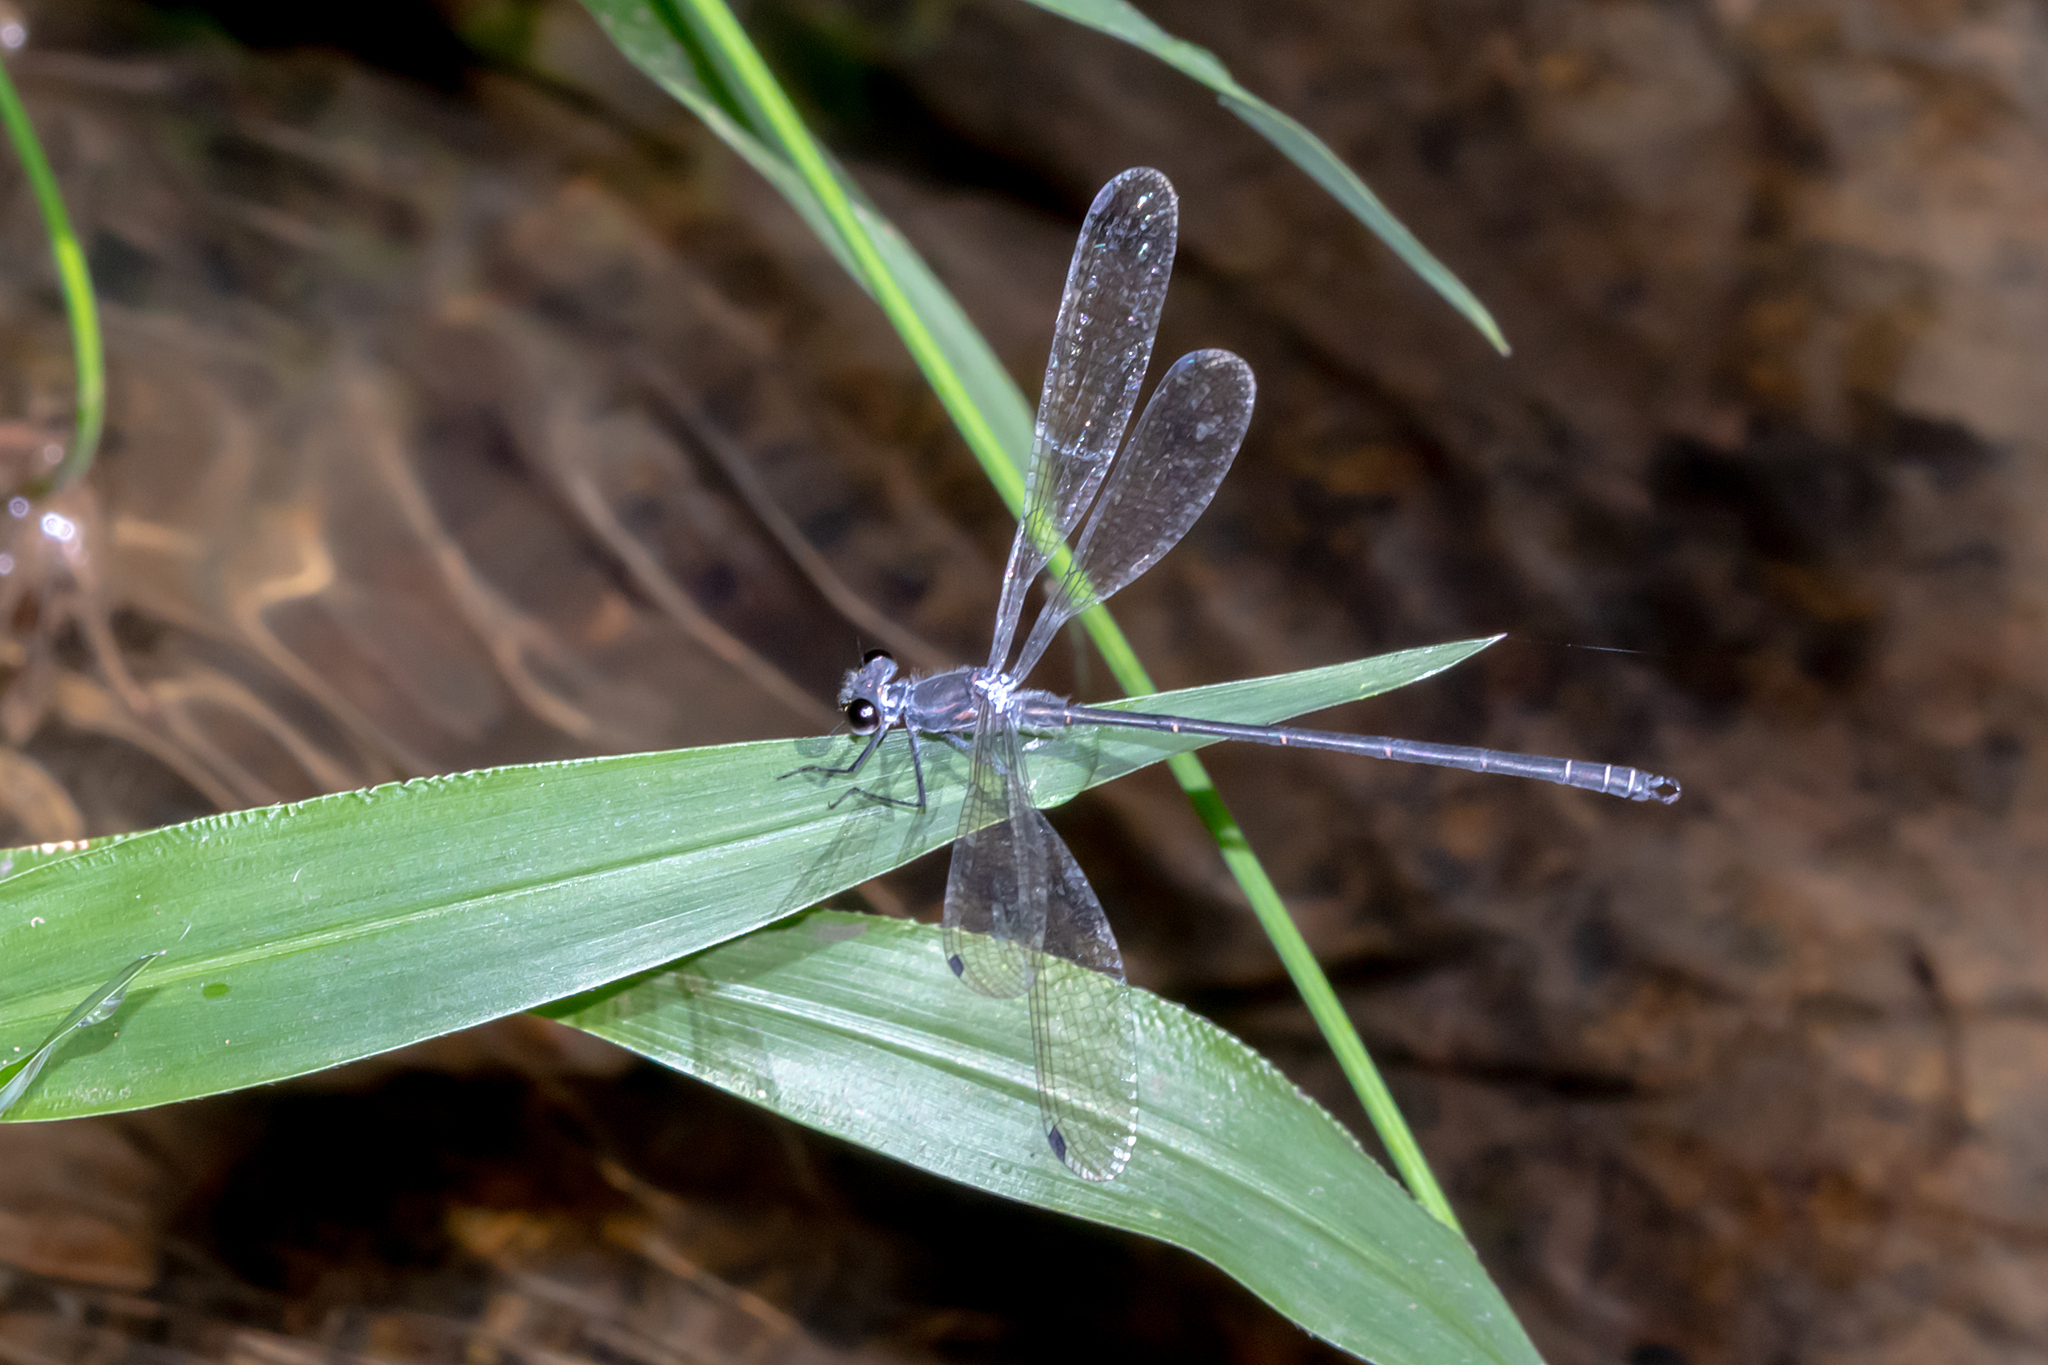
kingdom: Animalia
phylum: Arthropoda
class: Insecta
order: Odonata
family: Argiolestidae
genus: Austroargiolestes
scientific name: Austroargiolestes icteromelas
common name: Common flatwing
